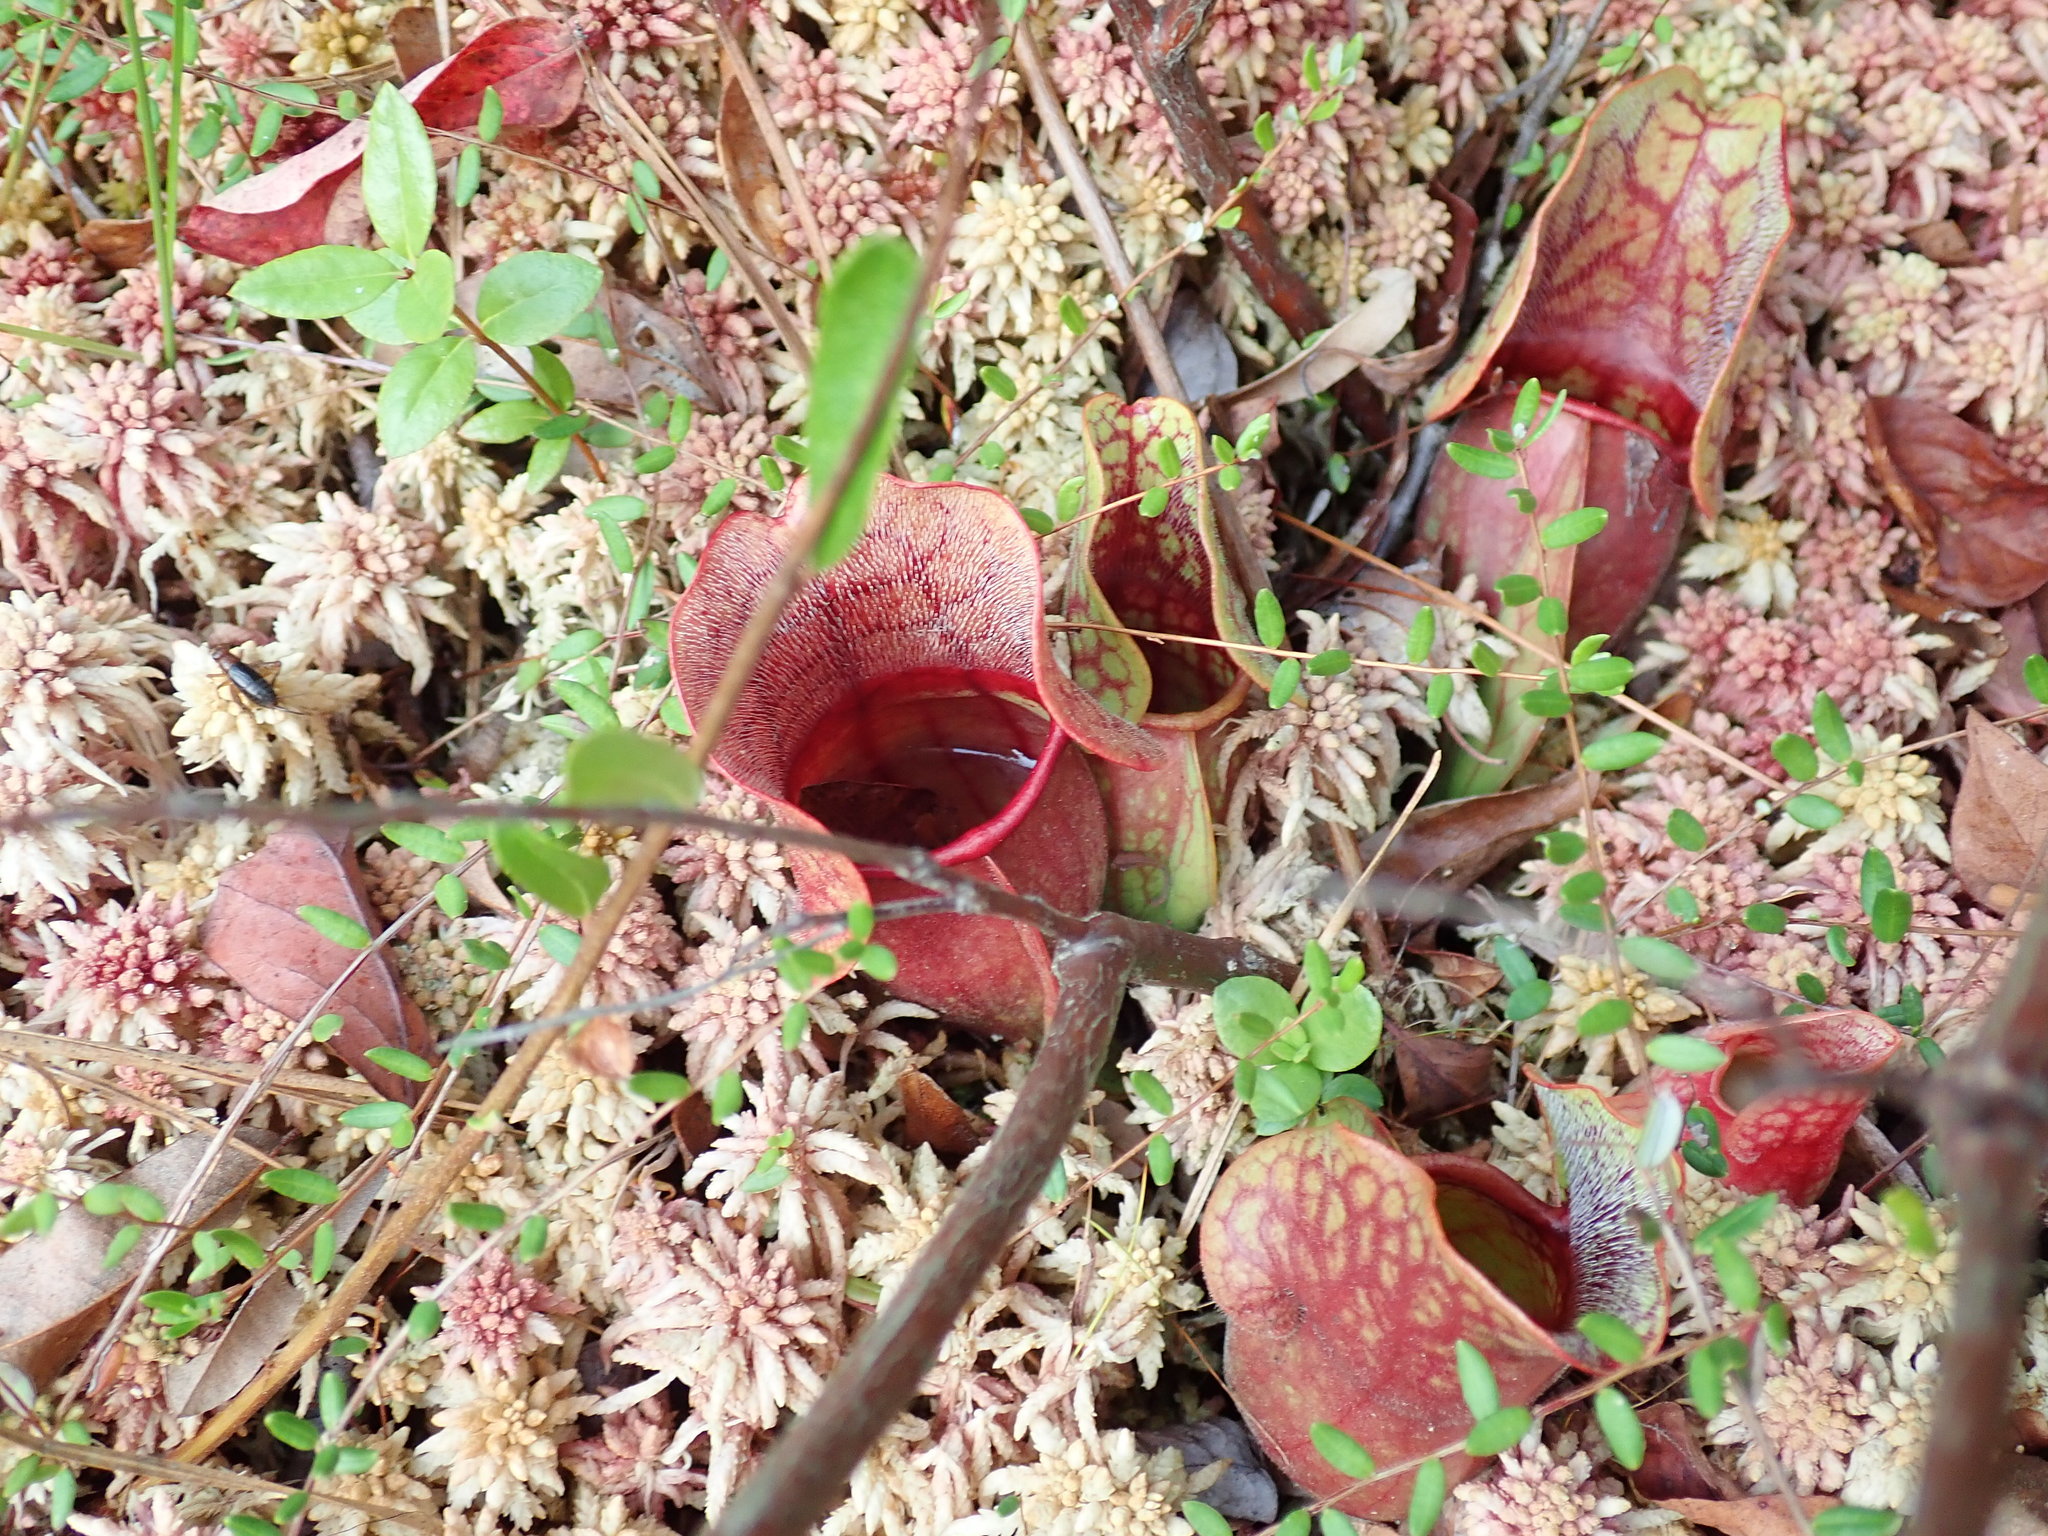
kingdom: Plantae
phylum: Tracheophyta
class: Magnoliopsida
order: Ericales
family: Sarraceniaceae
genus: Sarracenia
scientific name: Sarracenia purpurea
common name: Pitcherplant
